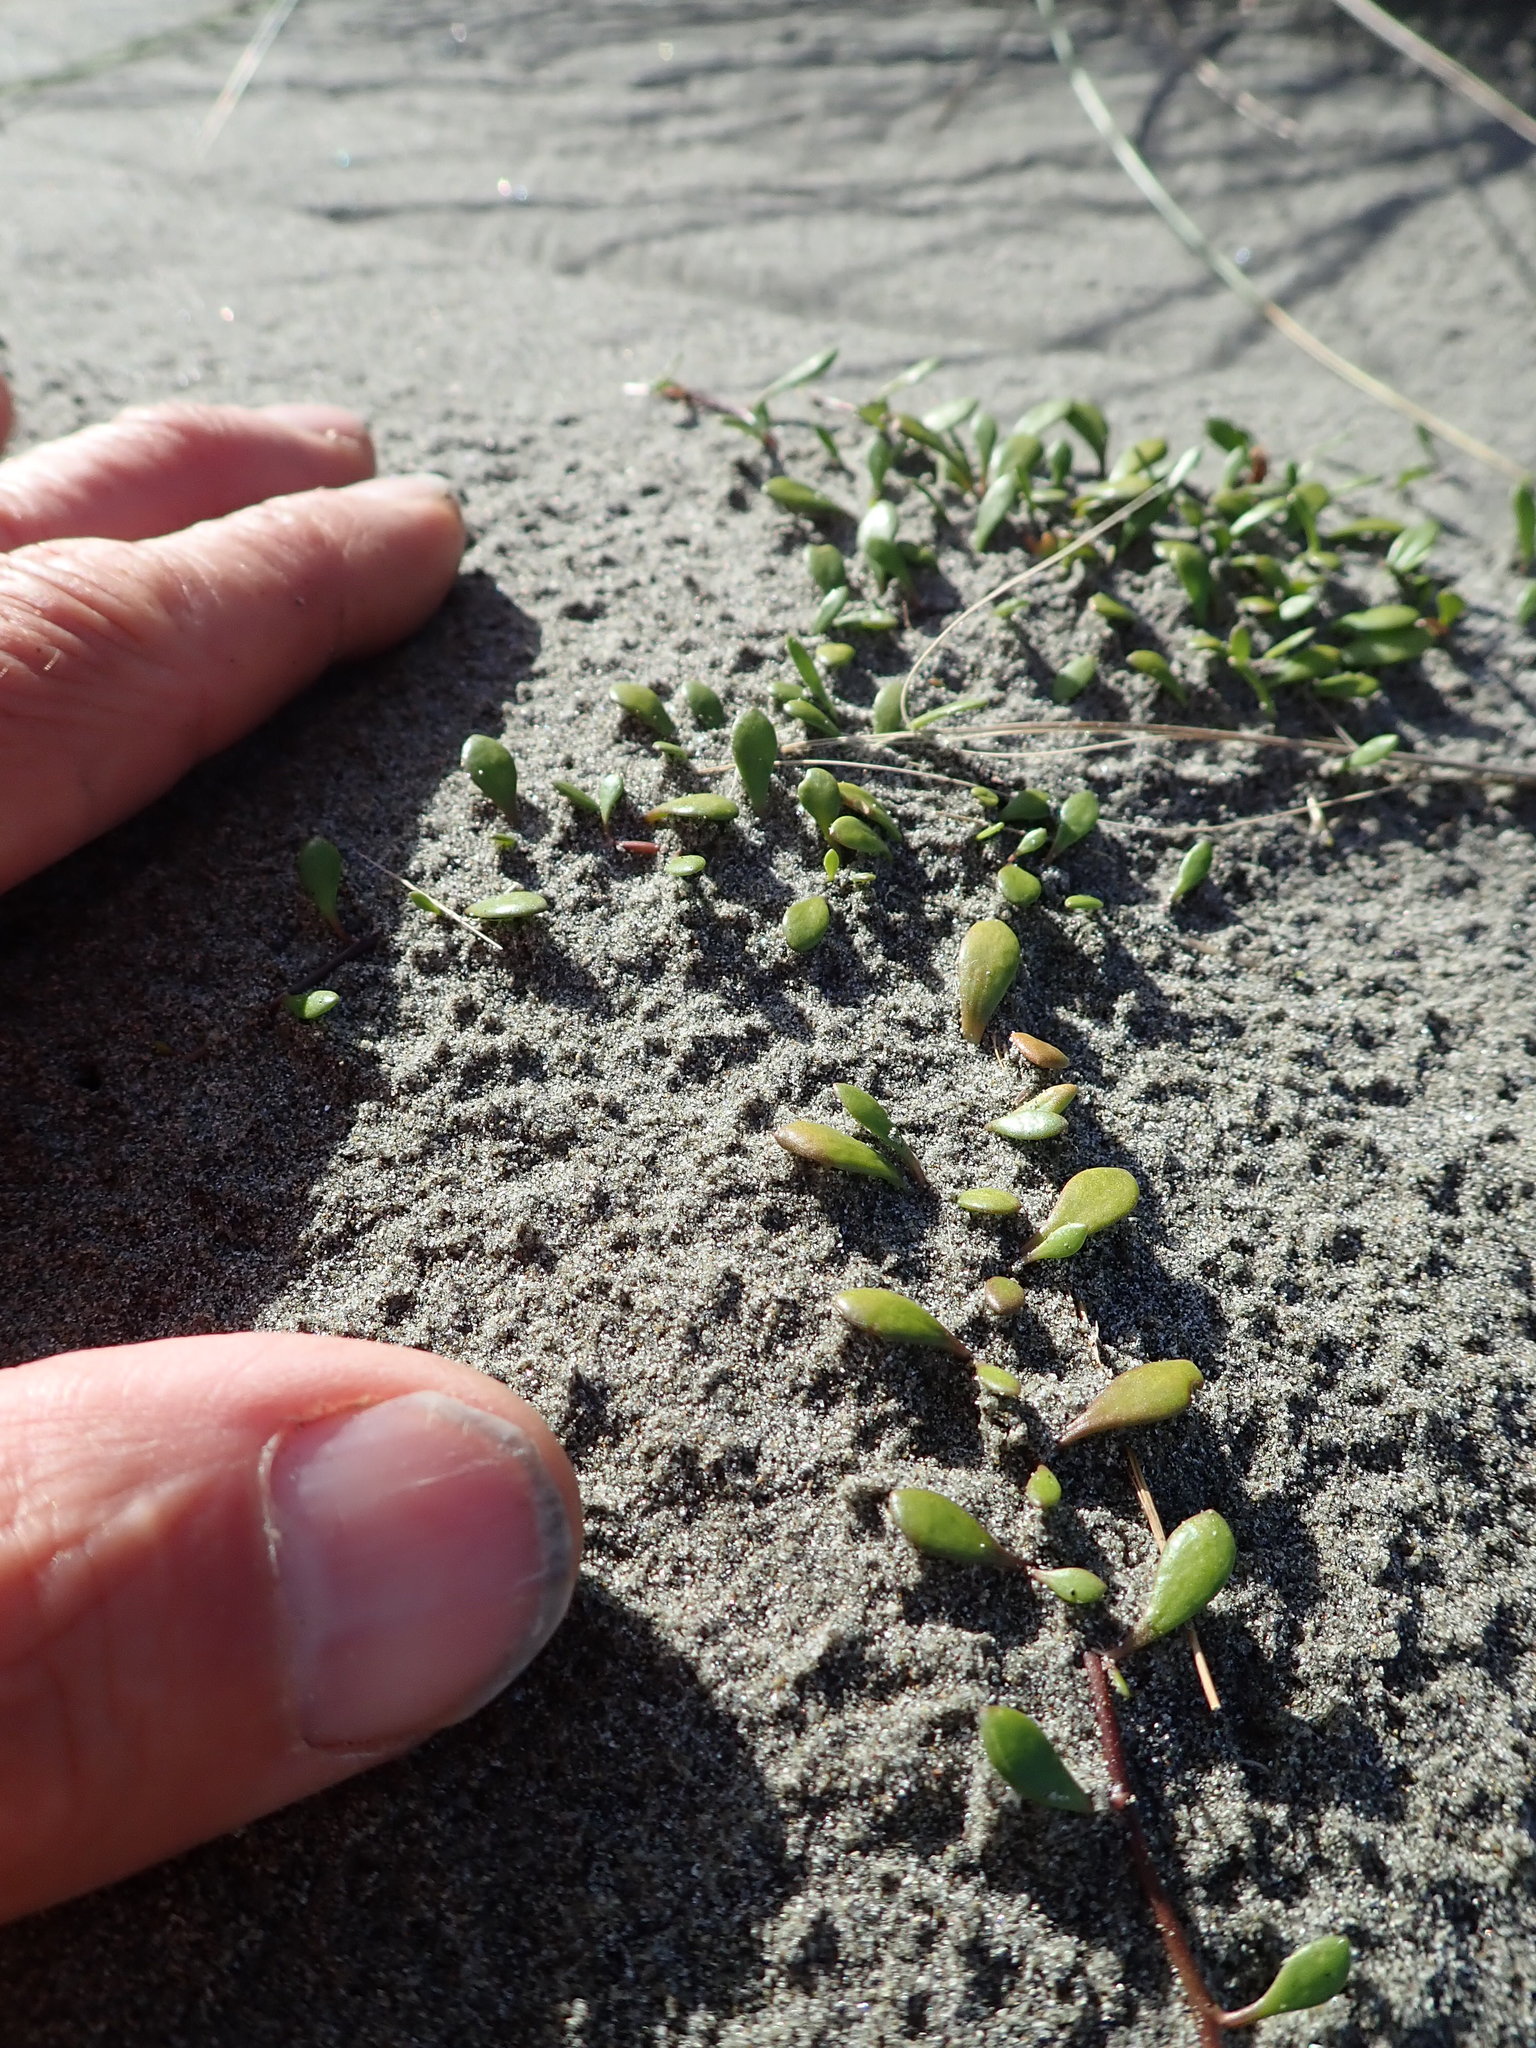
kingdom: Plantae
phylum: Tracheophyta
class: Magnoliopsida
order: Asterales
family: Goodeniaceae
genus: Goodenia
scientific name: Goodenia radicans
